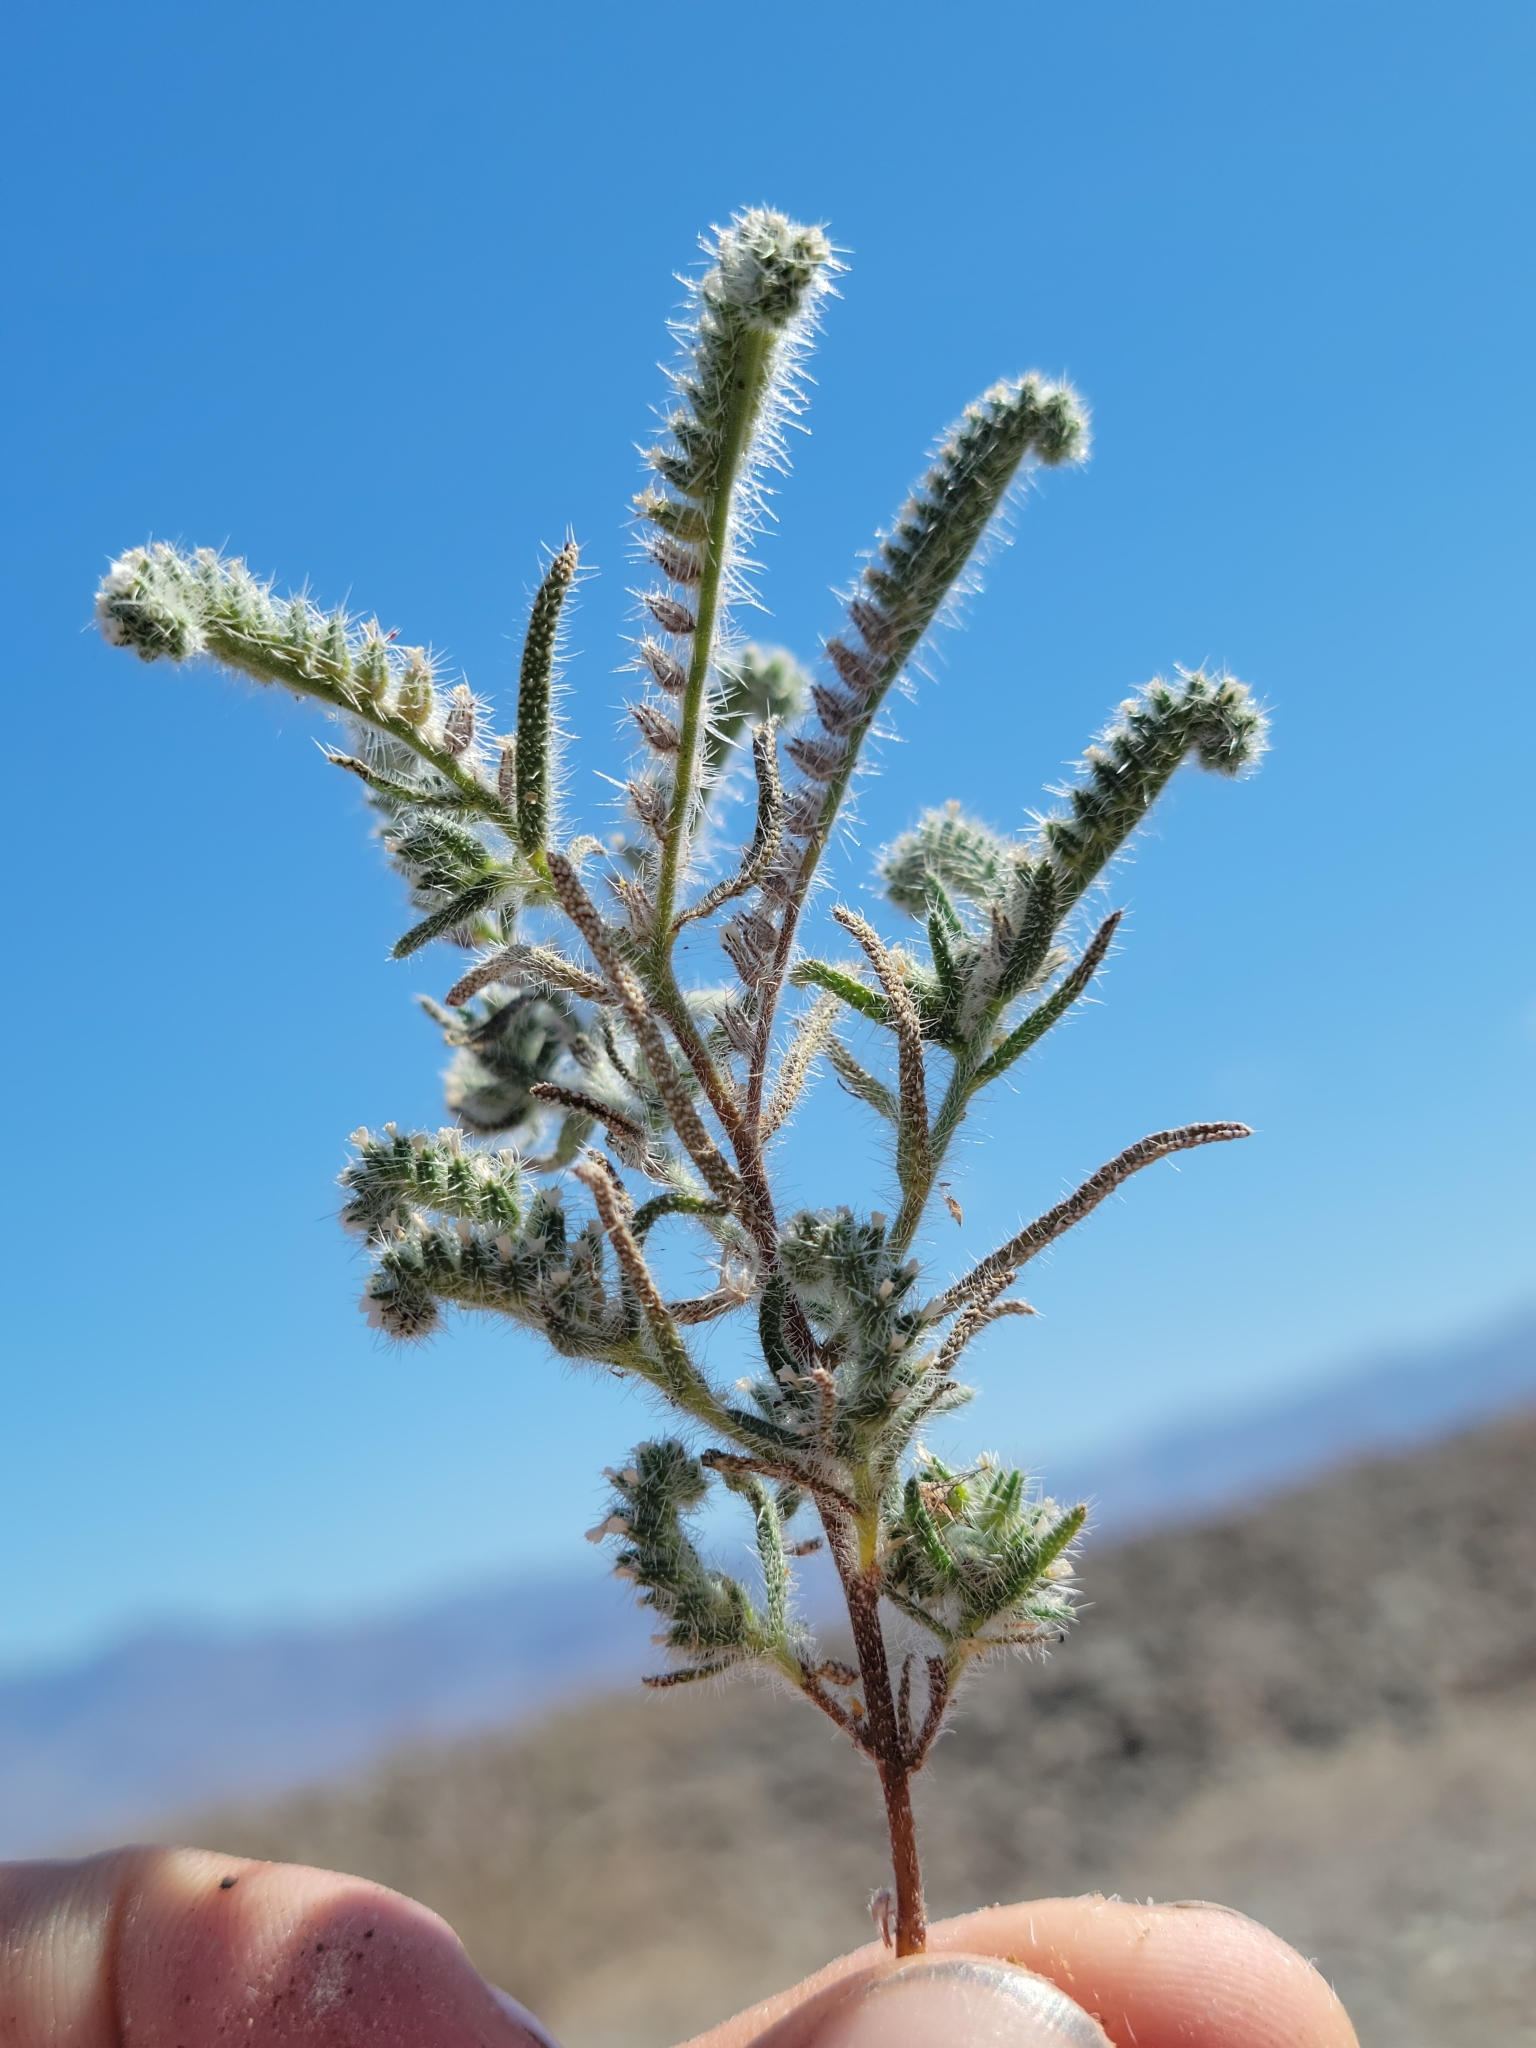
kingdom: Plantae
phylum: Tracheophyta
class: Magnoliopsida
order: Boraginales
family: Boraginaceae
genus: Johnstonella
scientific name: Johnstonella angustifolia
